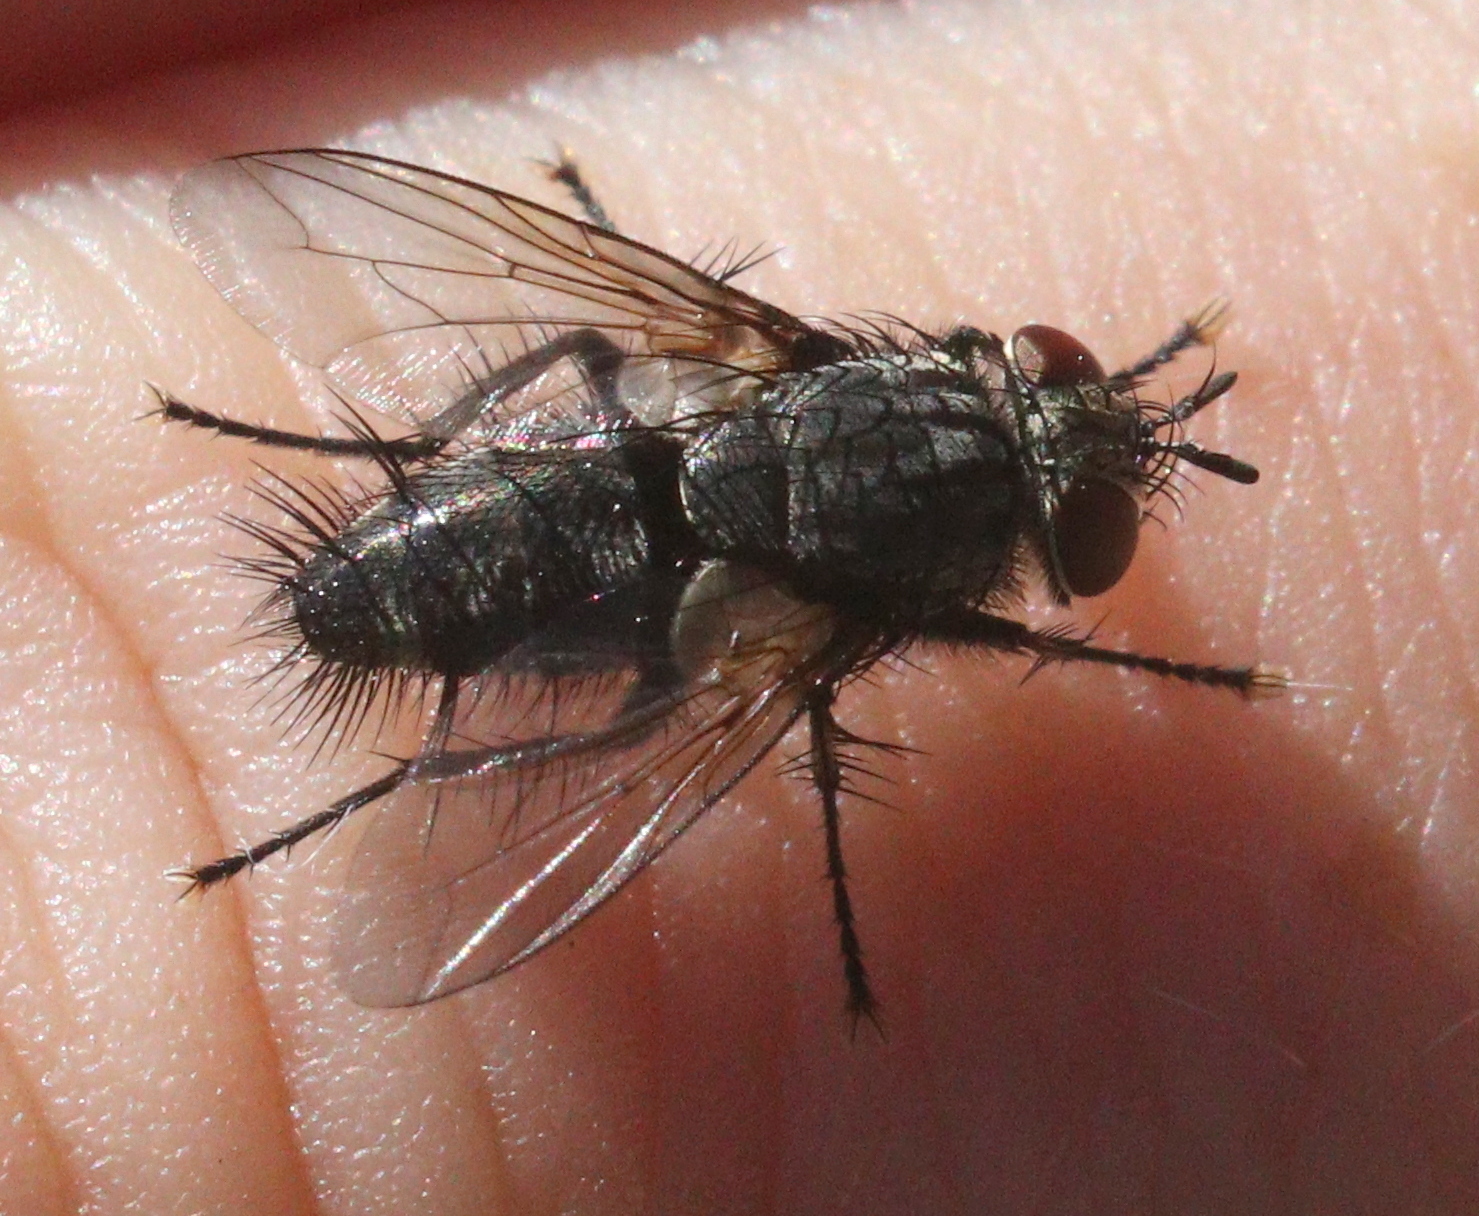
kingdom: Animalia
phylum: Arthropoda
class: Insecta
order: Diptera
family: Tachinidae
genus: Voria
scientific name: Voria ruralis
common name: Parasitic fly
